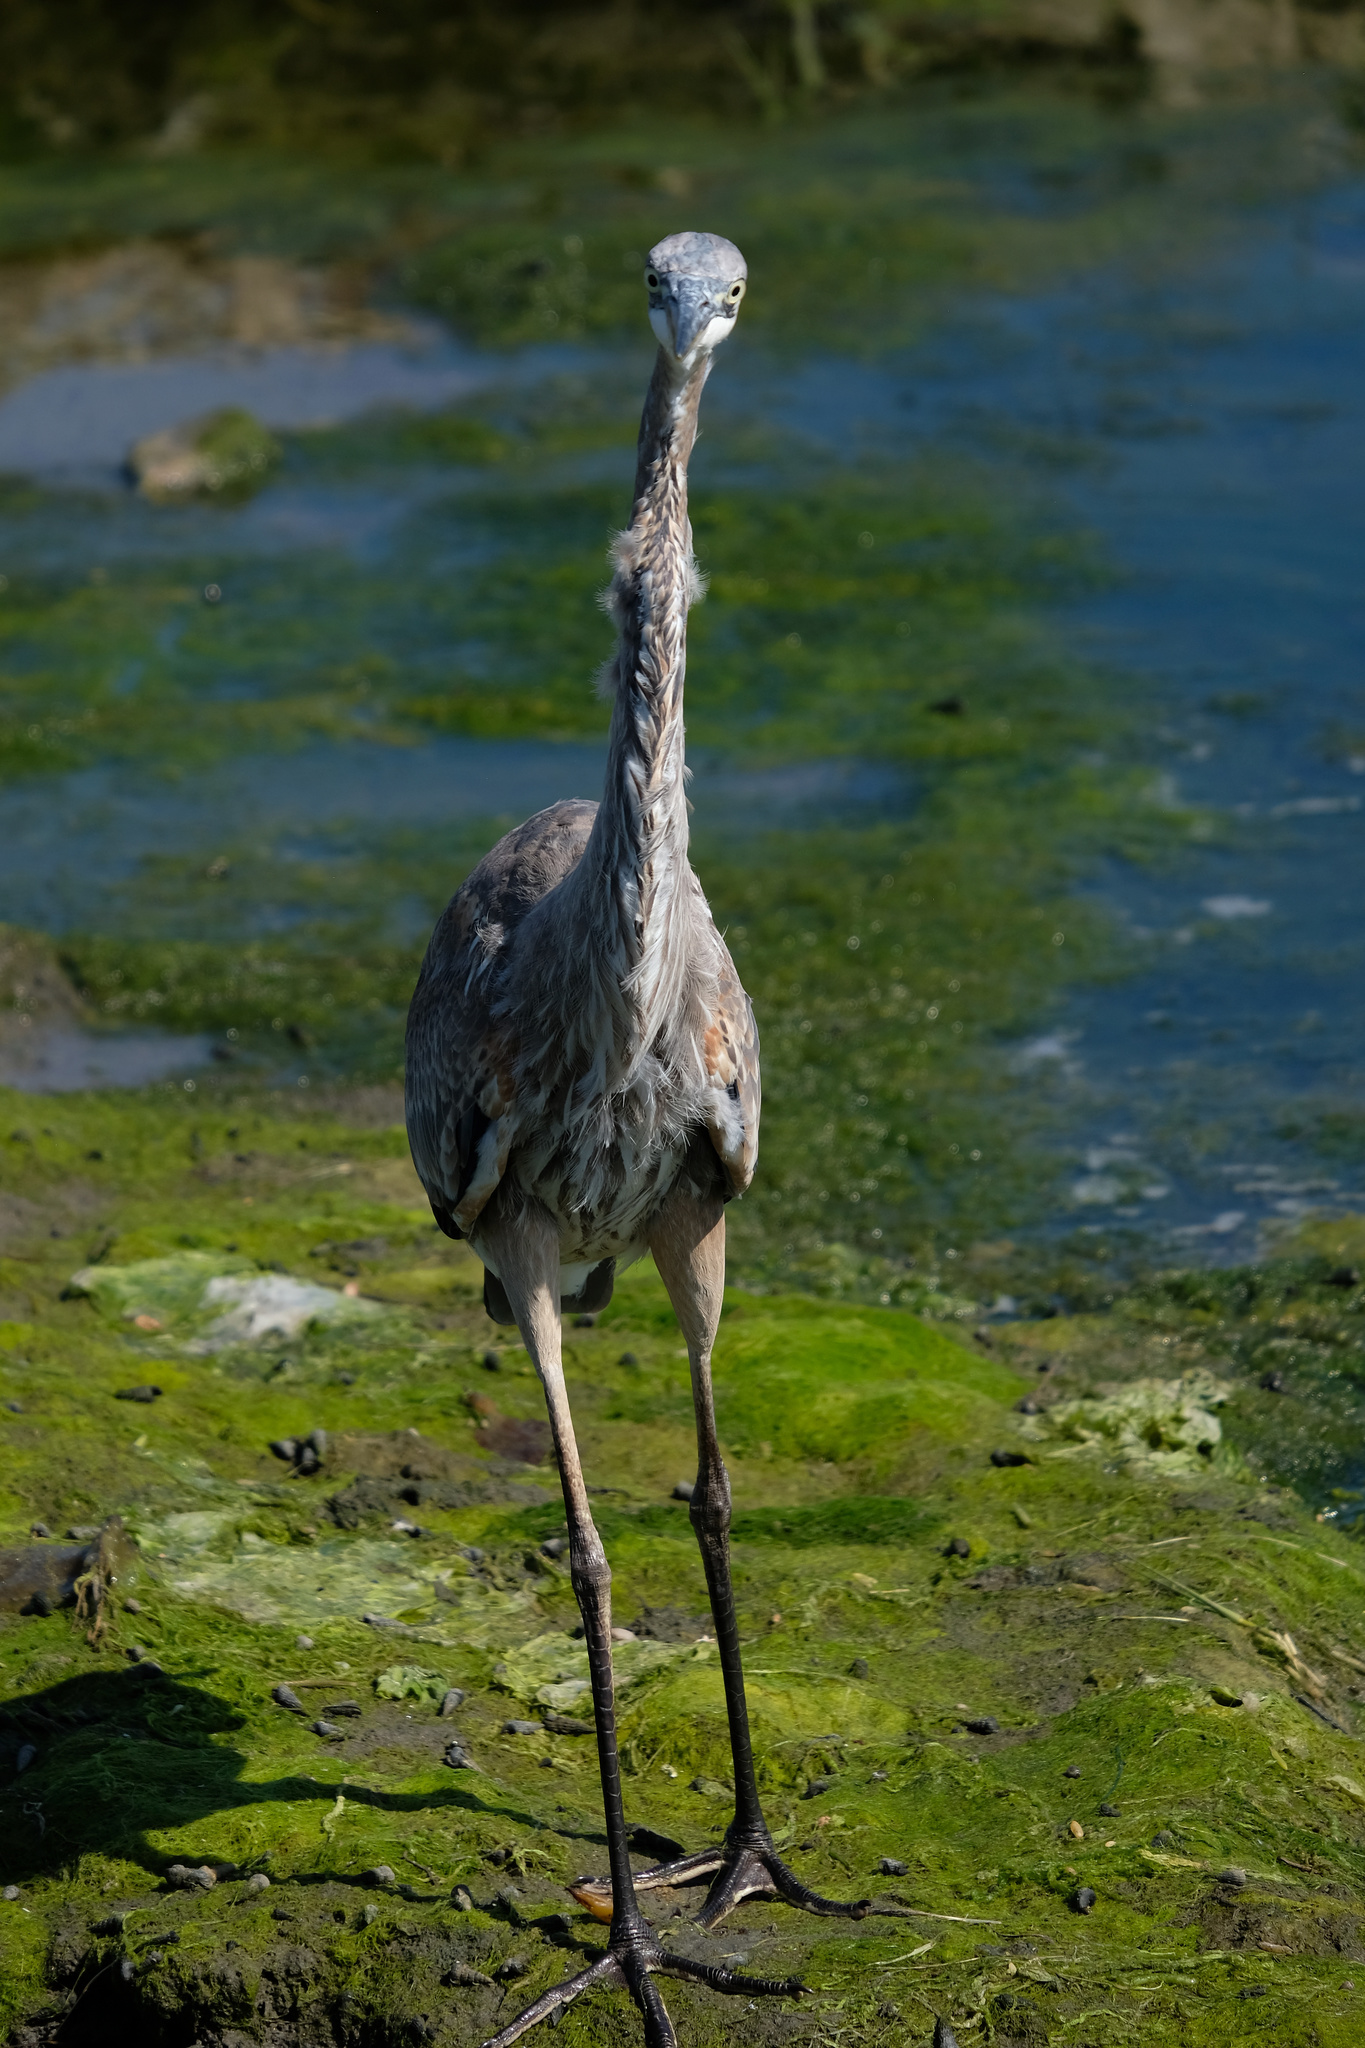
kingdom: Animalia
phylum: Chordata
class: Aves
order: Pelecaniformes
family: Ardeidae
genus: Ardea
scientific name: Ardea herodias
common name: Great blue heron
